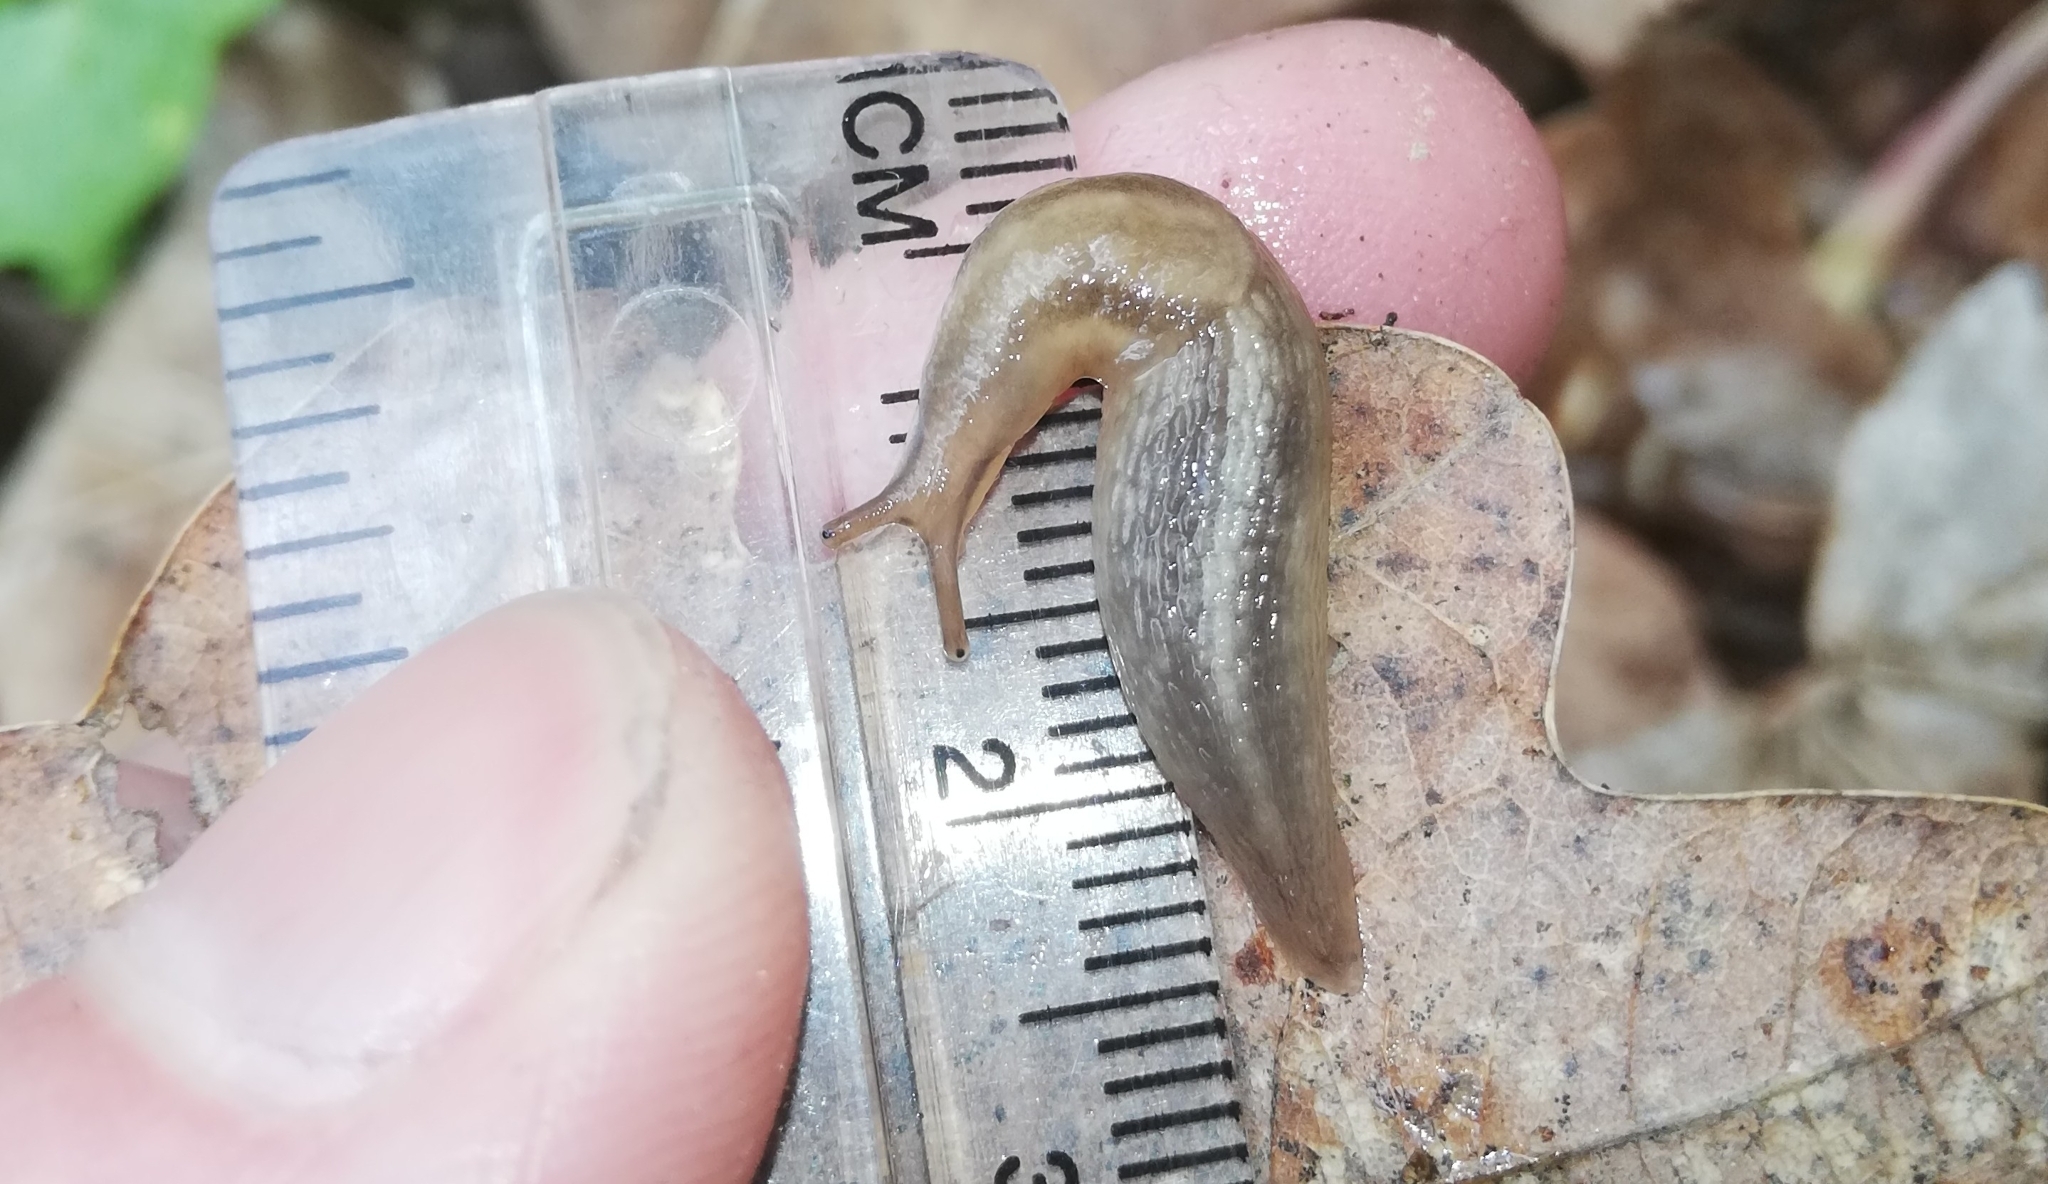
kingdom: Animalia
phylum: Mollusca
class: Gastropoda
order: Stylommatophora
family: Limacidae
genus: Lehmannia
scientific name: Lehmannia marginata
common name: Tree slug
